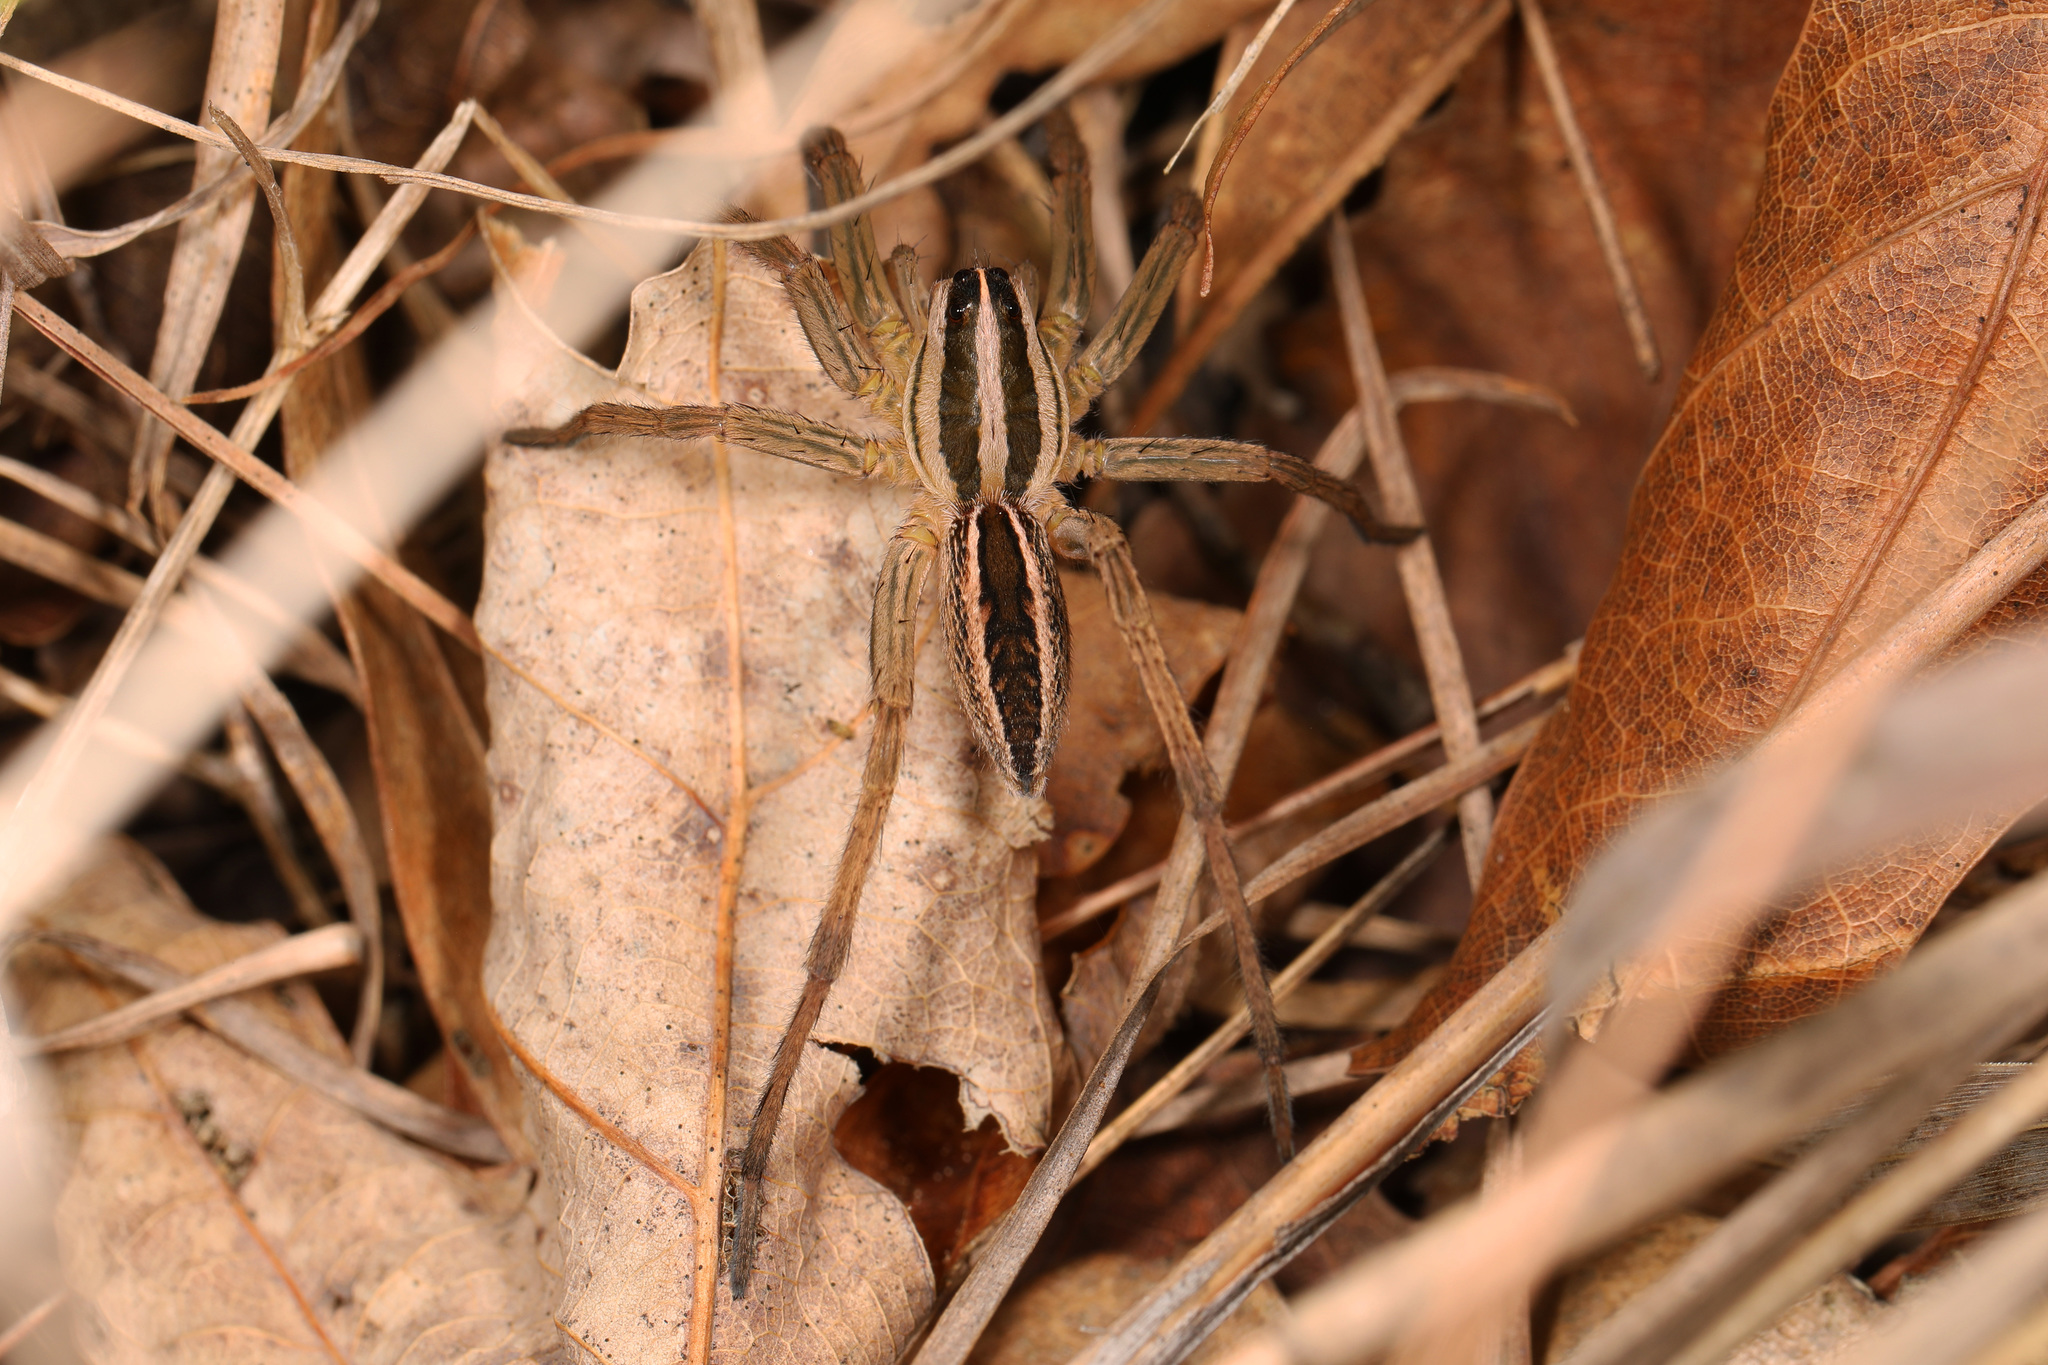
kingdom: Animalia
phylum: Arthropoda
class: Arachnida
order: Araneae
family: Lycosidae
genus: Rabidosa
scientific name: Rabidosa rabida
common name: Rabid wolf spider
